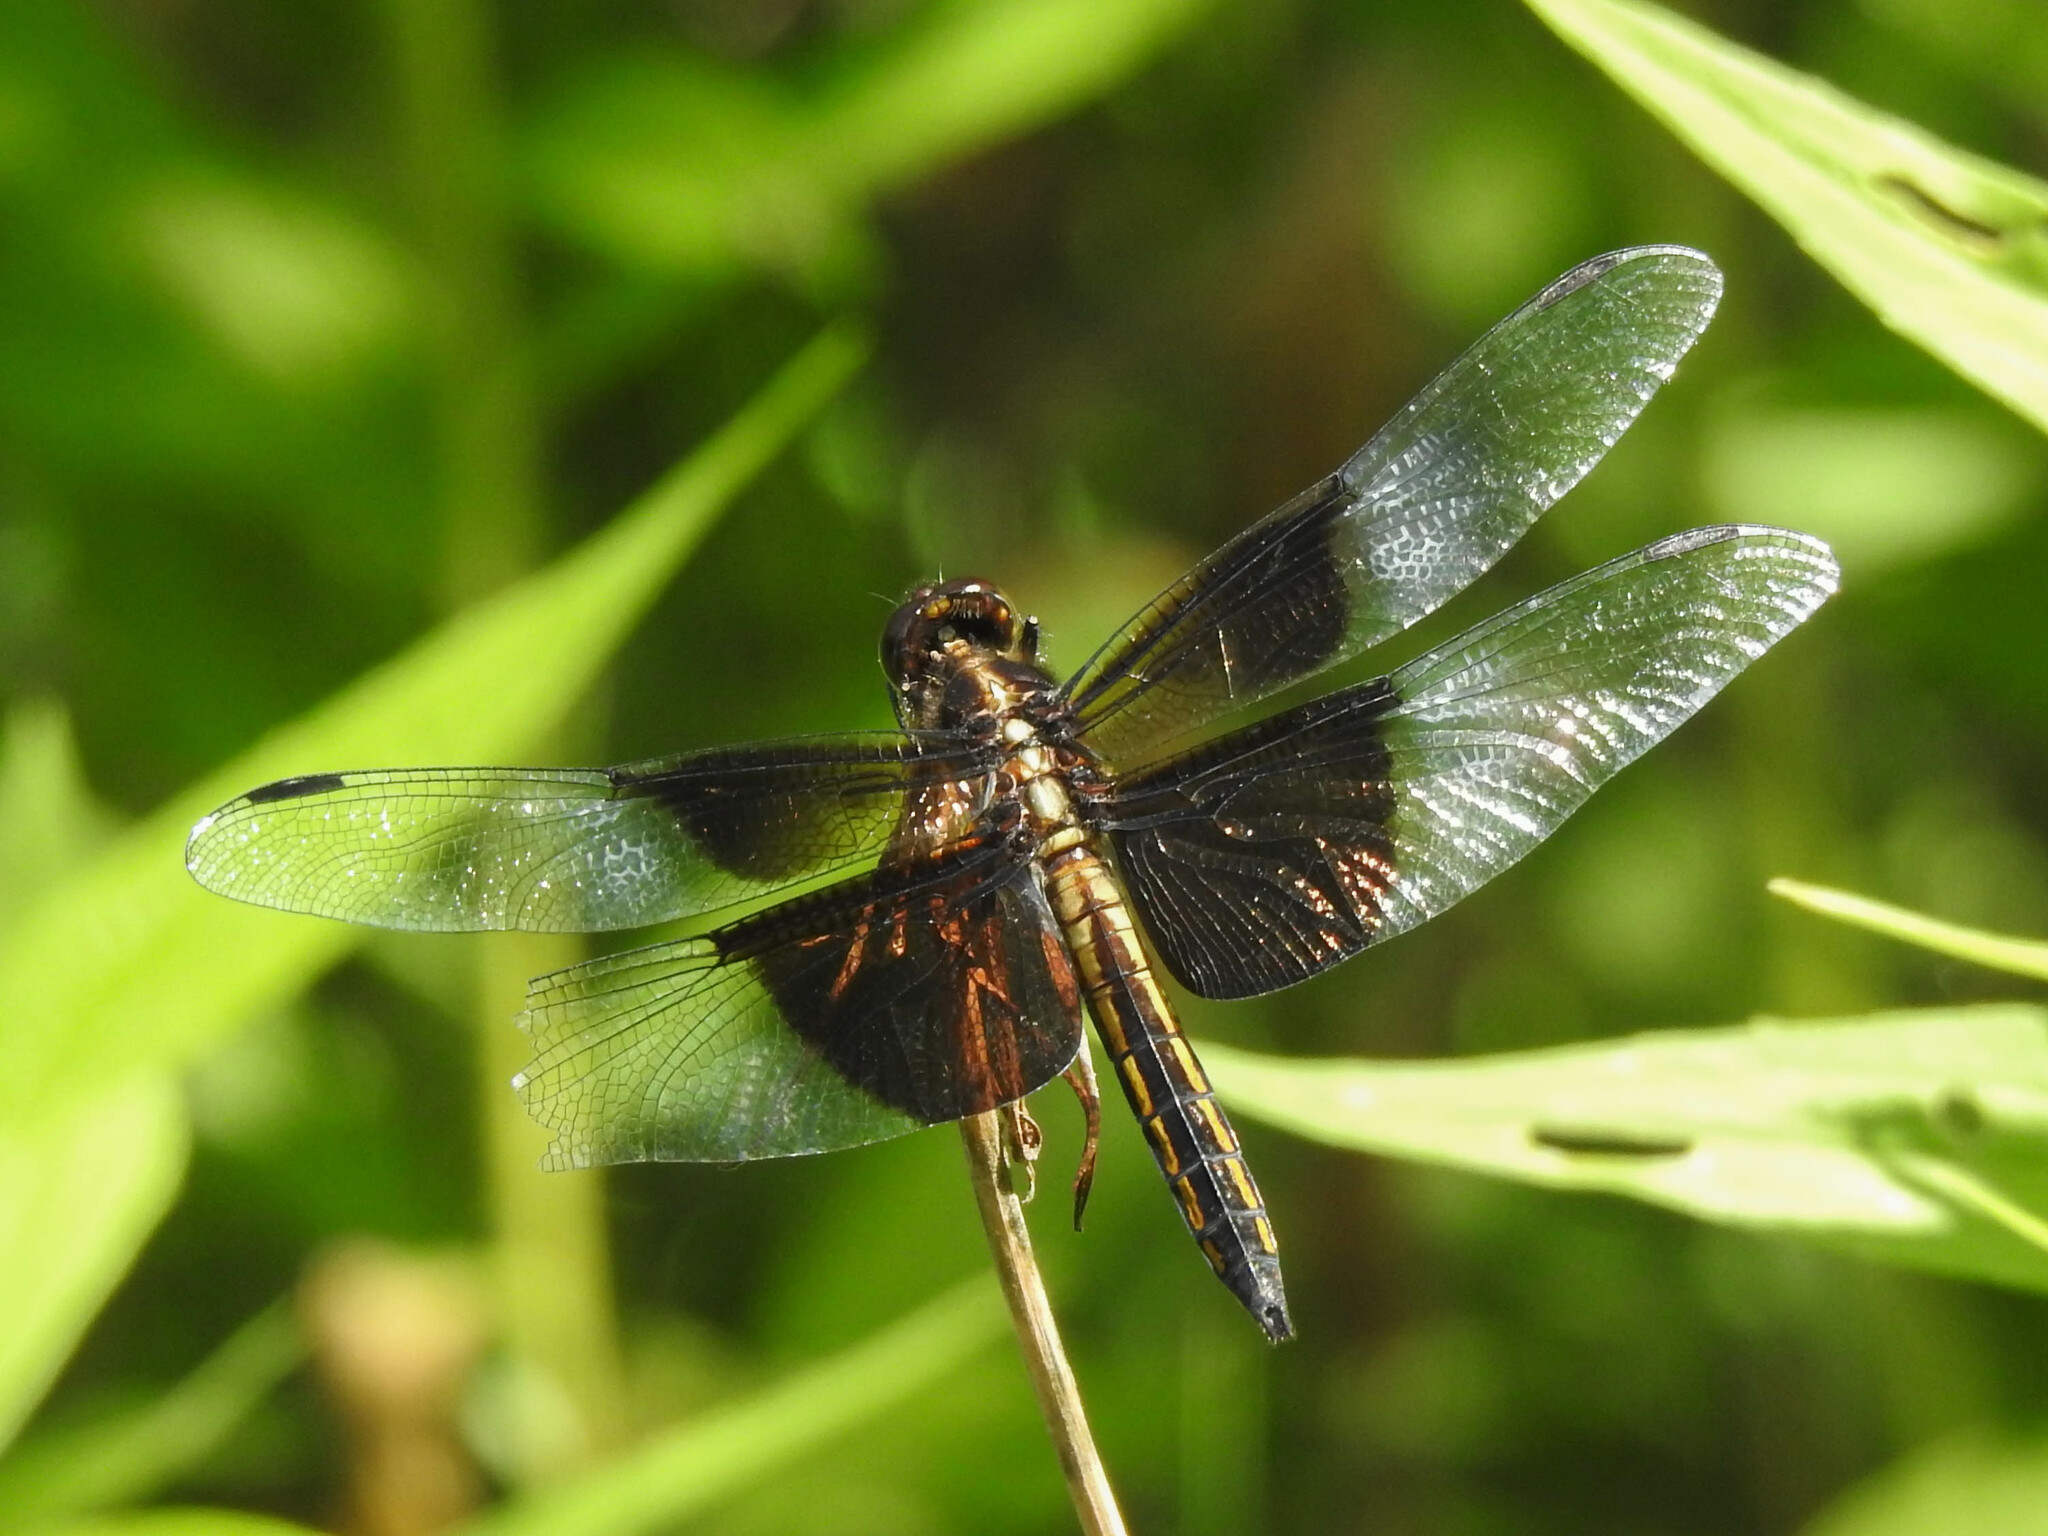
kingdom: Animalia
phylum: Arthropoda
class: Insecta
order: Odonata
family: Libellulidae
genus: Libellula
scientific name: Libellula luctuosa
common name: Widow skimmer
